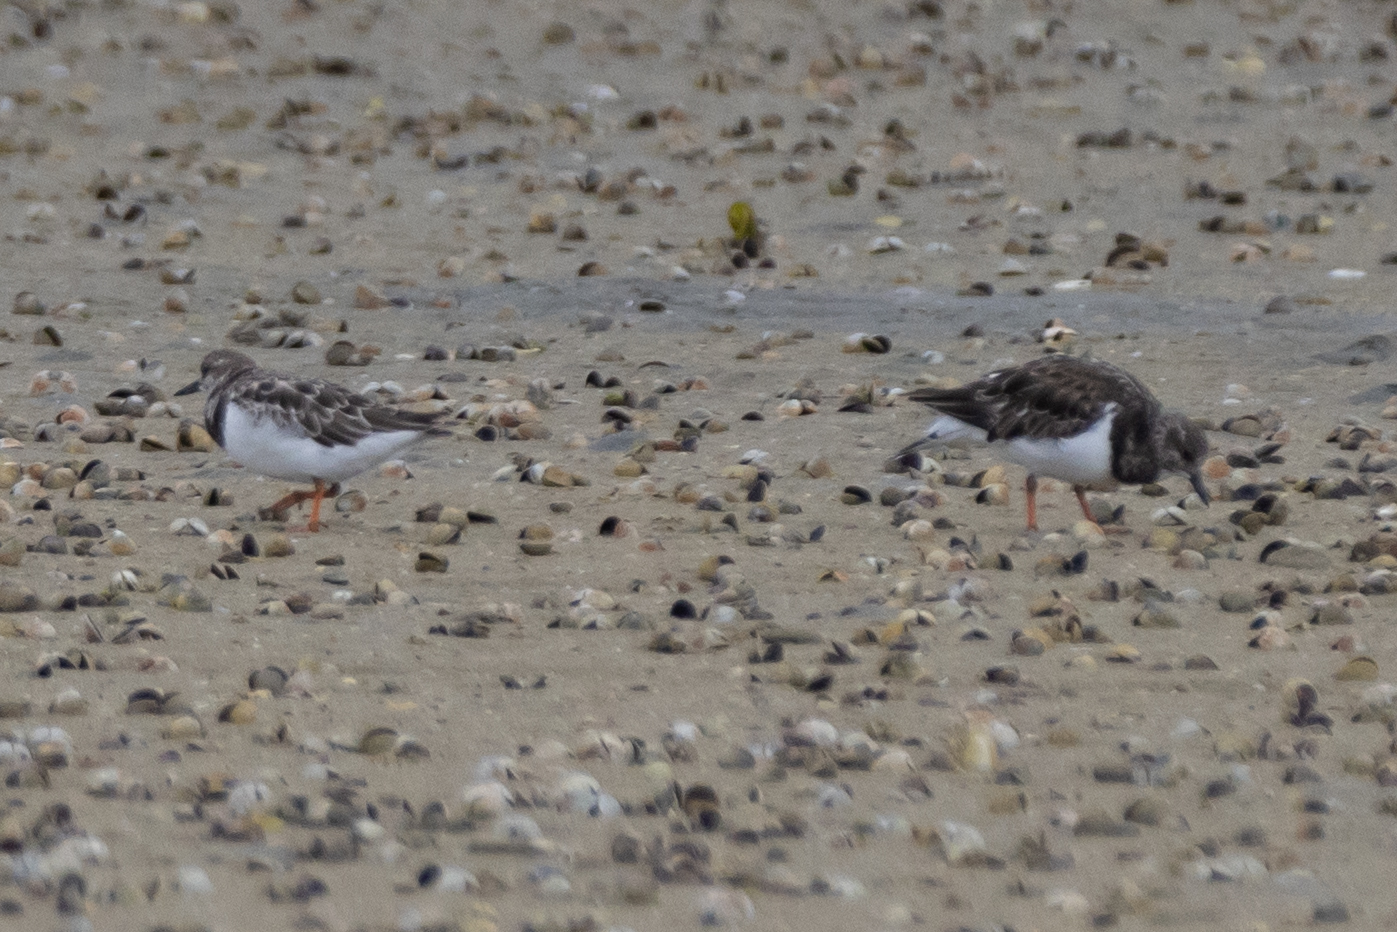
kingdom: Animalia
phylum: Chordata
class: Aves
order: Charadriiformes
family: Scolopacidae
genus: Arenaria
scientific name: Arenaria interpres
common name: Ruddy turnstone
